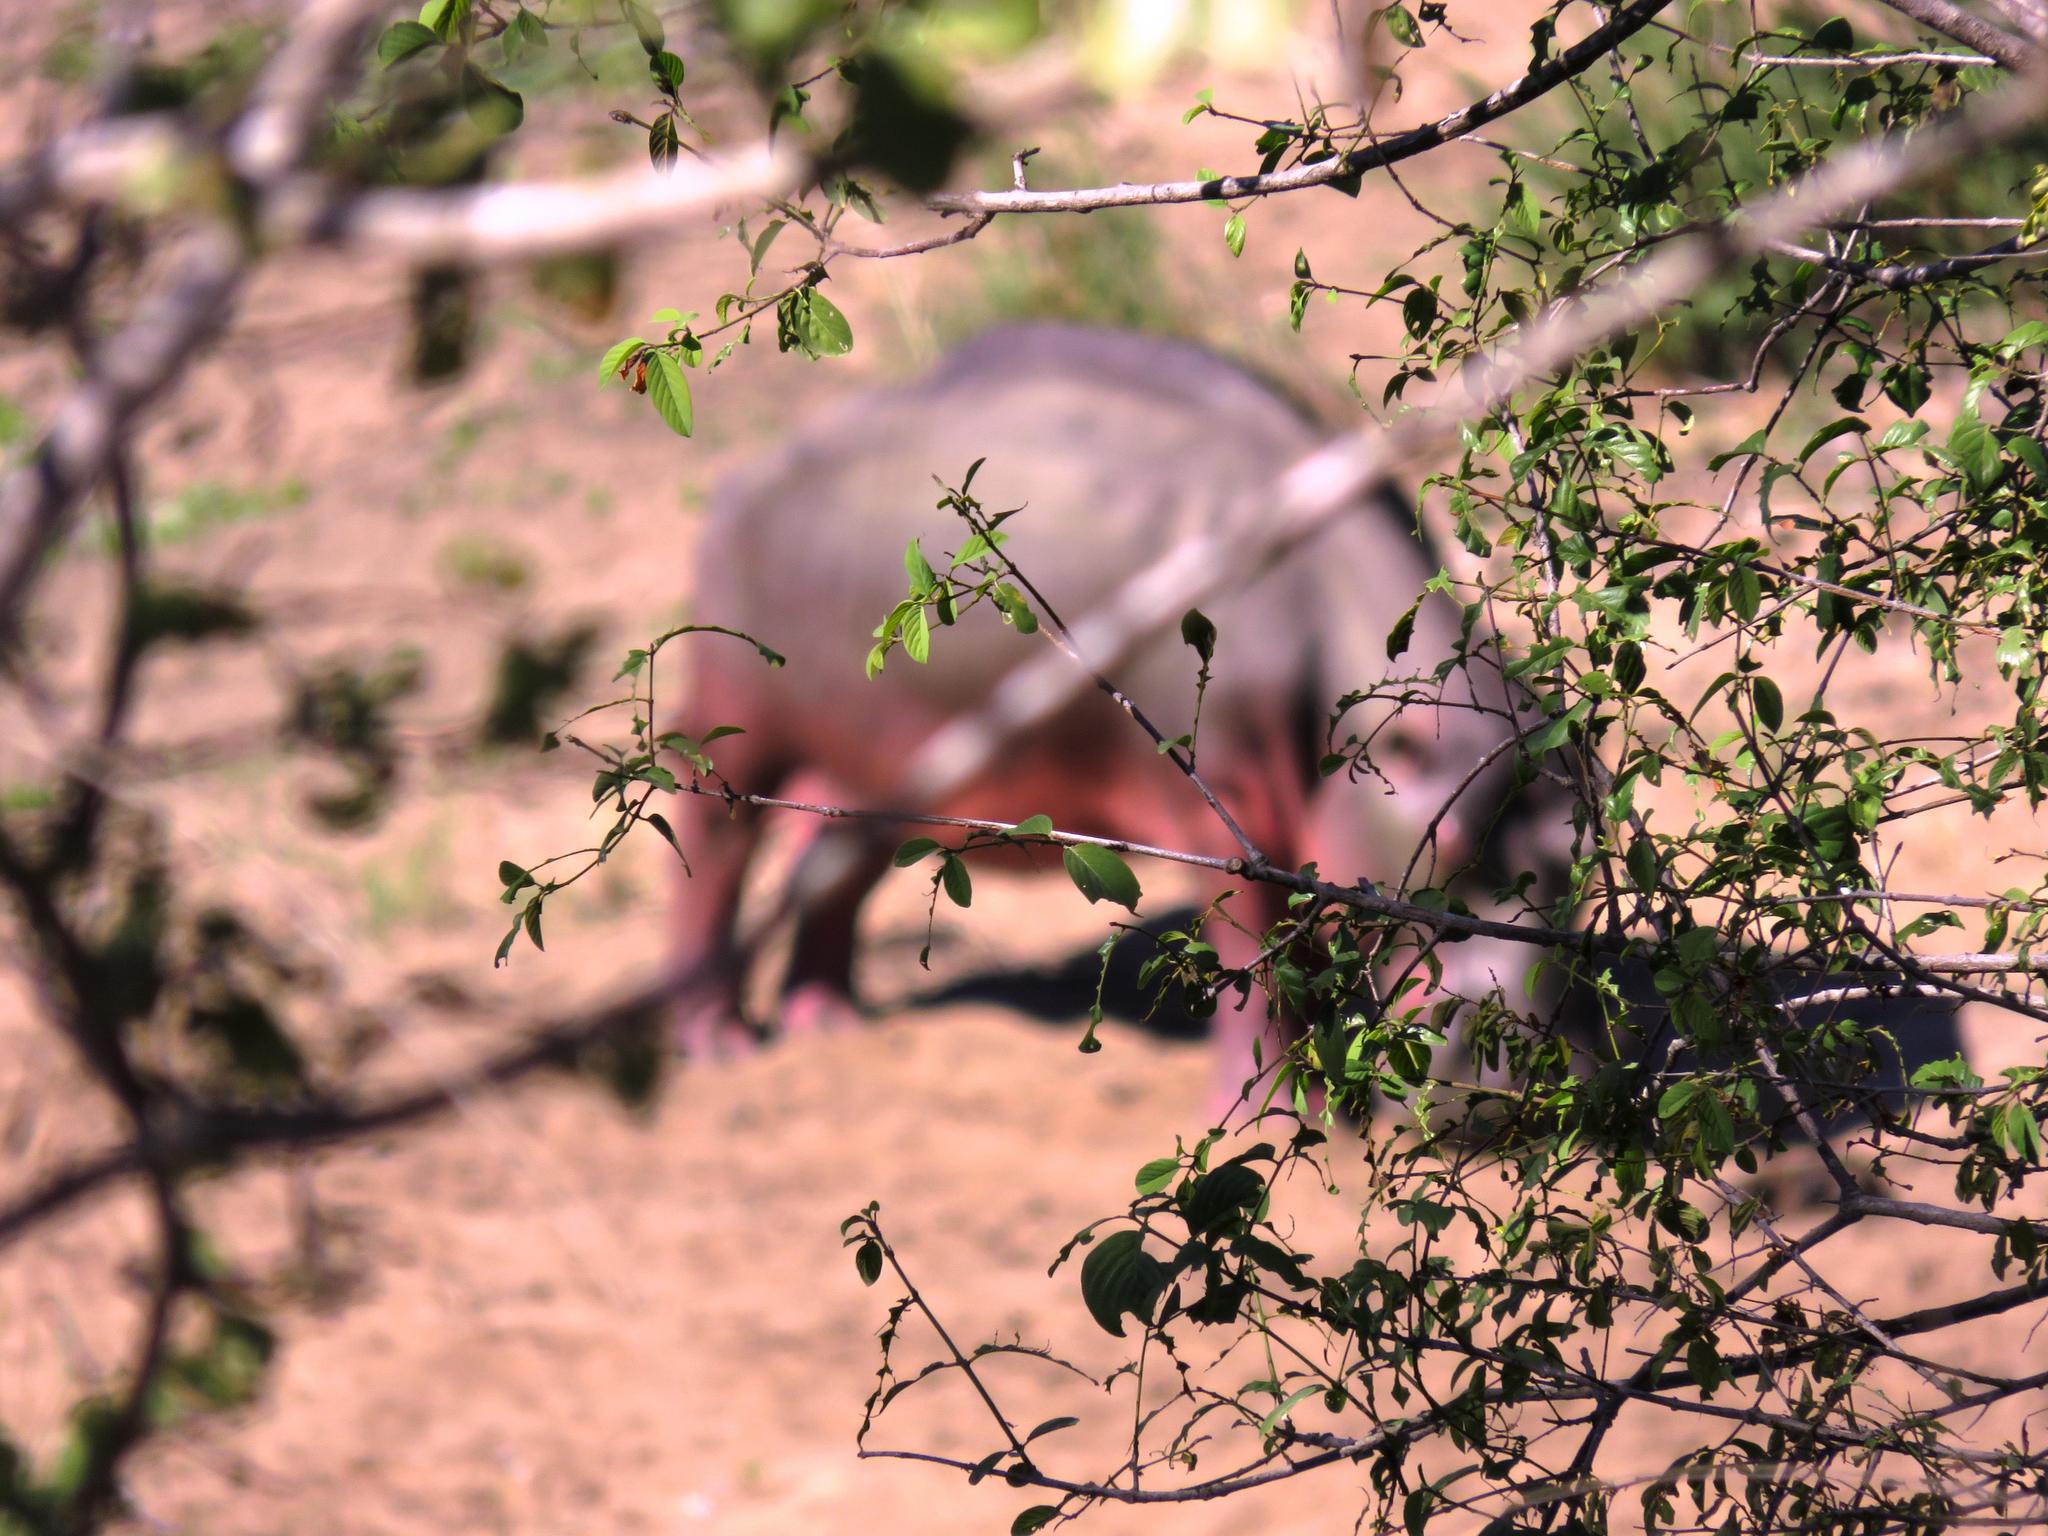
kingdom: Animalia
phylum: Chordata
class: Mammalia
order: Artiodactyla
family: Hippopotamidae
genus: Hippopotamus
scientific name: Hippopotamus amphibius
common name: Common hippopotamus
